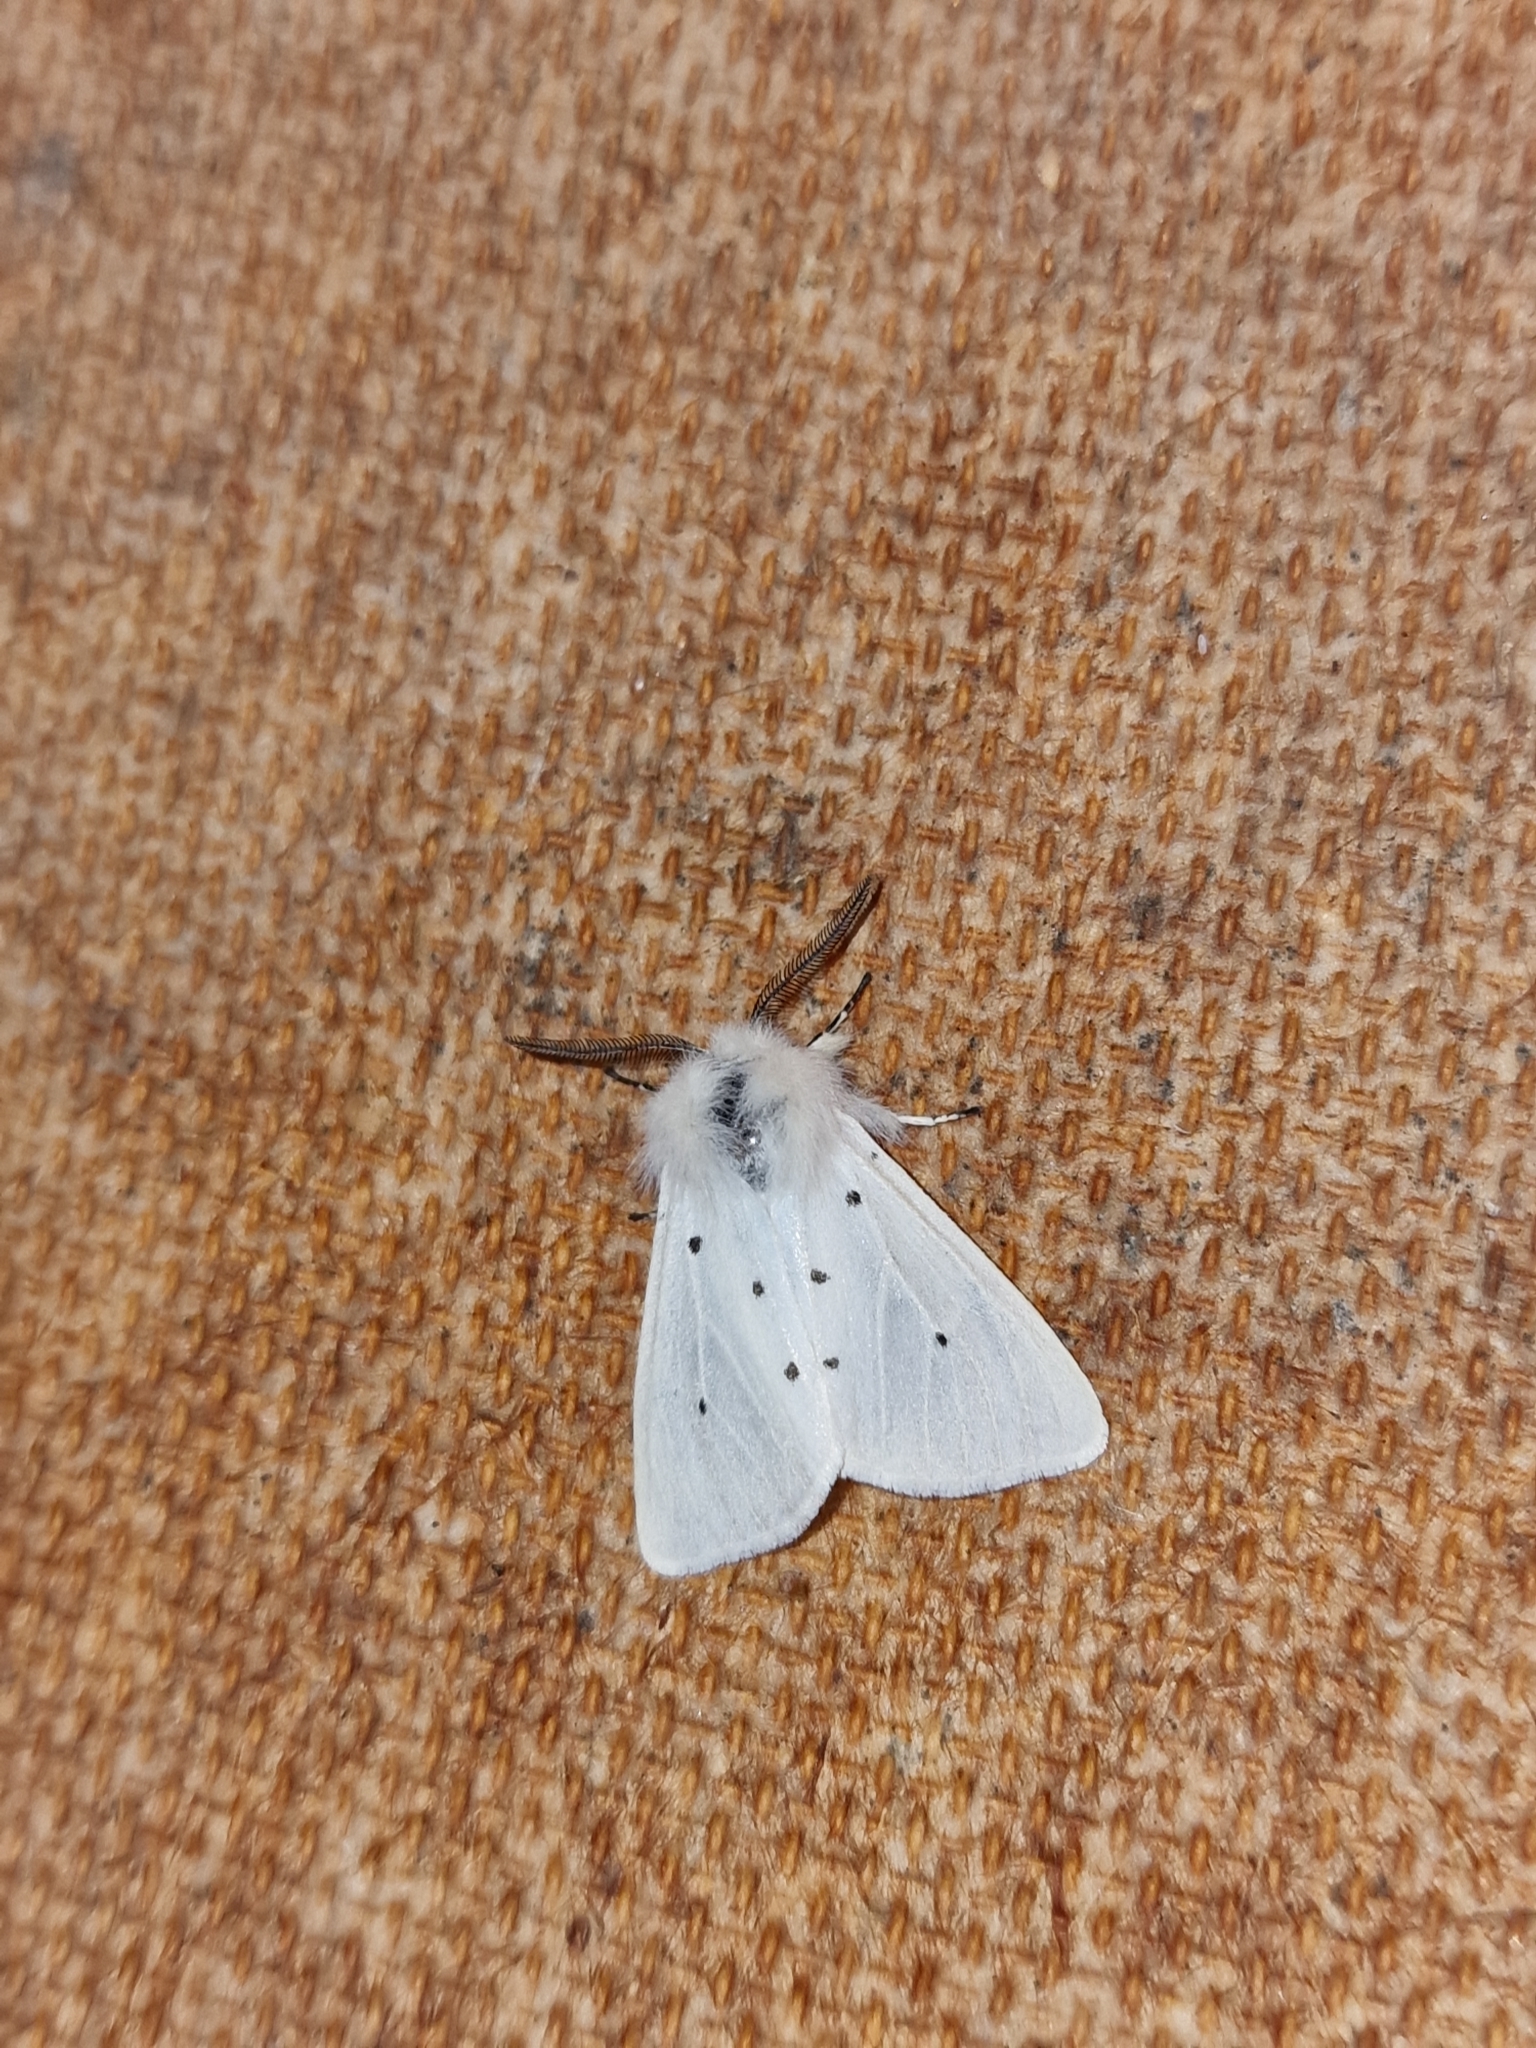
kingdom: Animalia
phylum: Arthropoda
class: Insecta
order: Lepidoptera
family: Erebidae
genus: Diaphora
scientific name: Diaphora mendica
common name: Muslin moth
